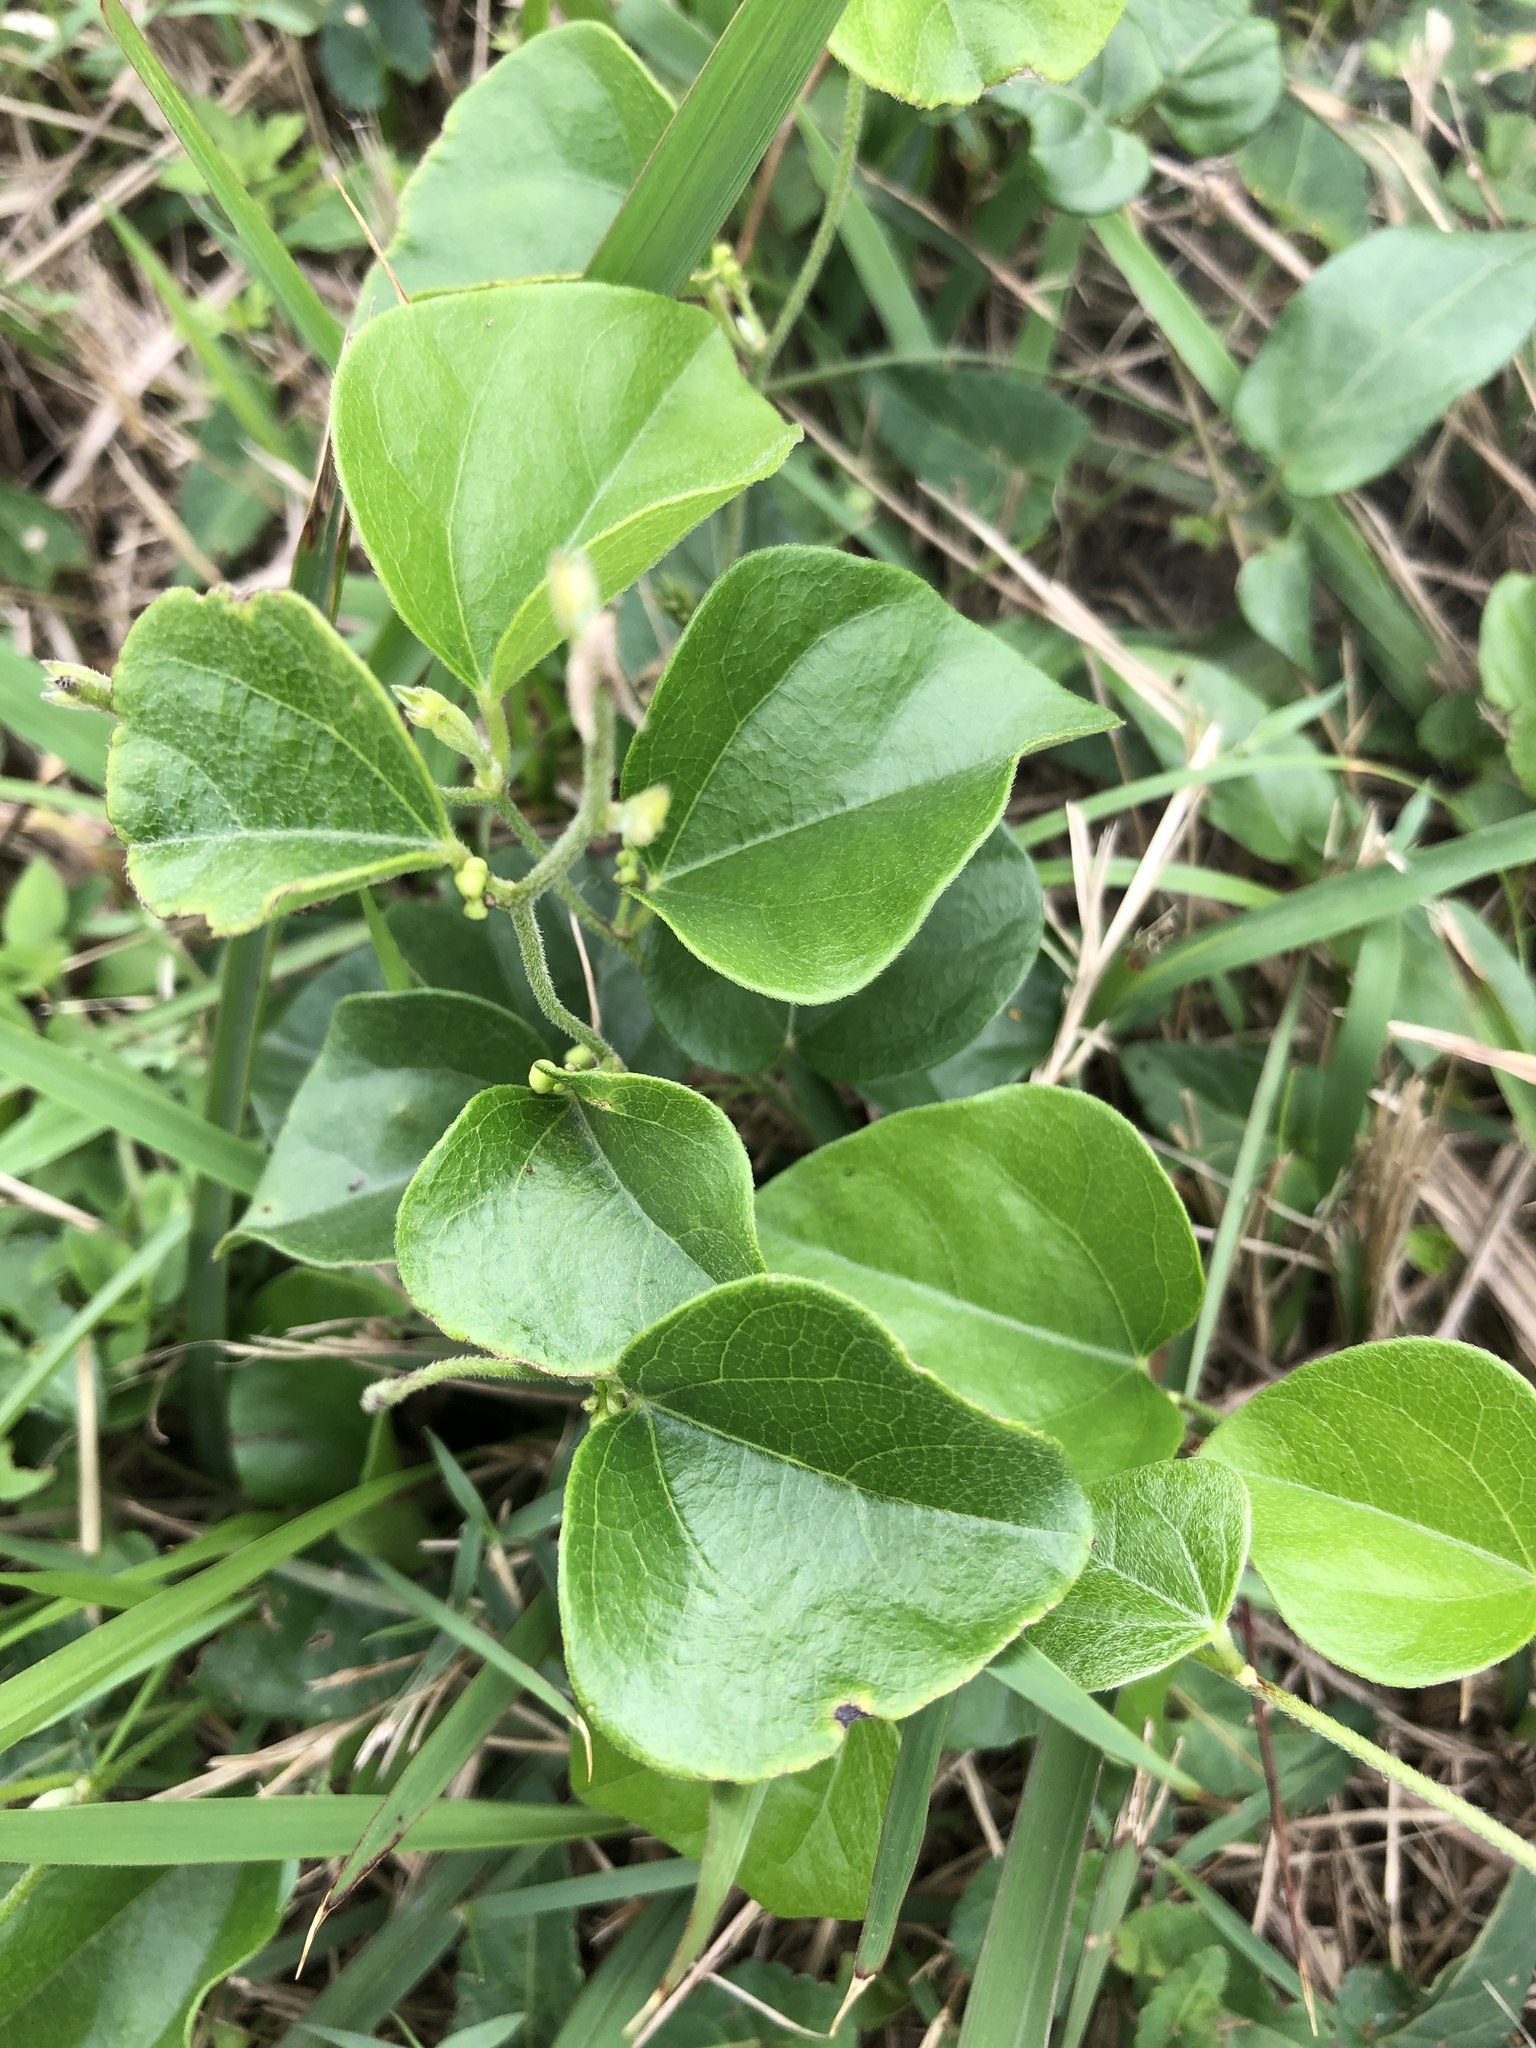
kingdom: Plantae
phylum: Tracheophyta
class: Magnoliopsida
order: Ranunculales
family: Menispermaceae
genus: Cocculus
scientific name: Cocculus orbiculatus
